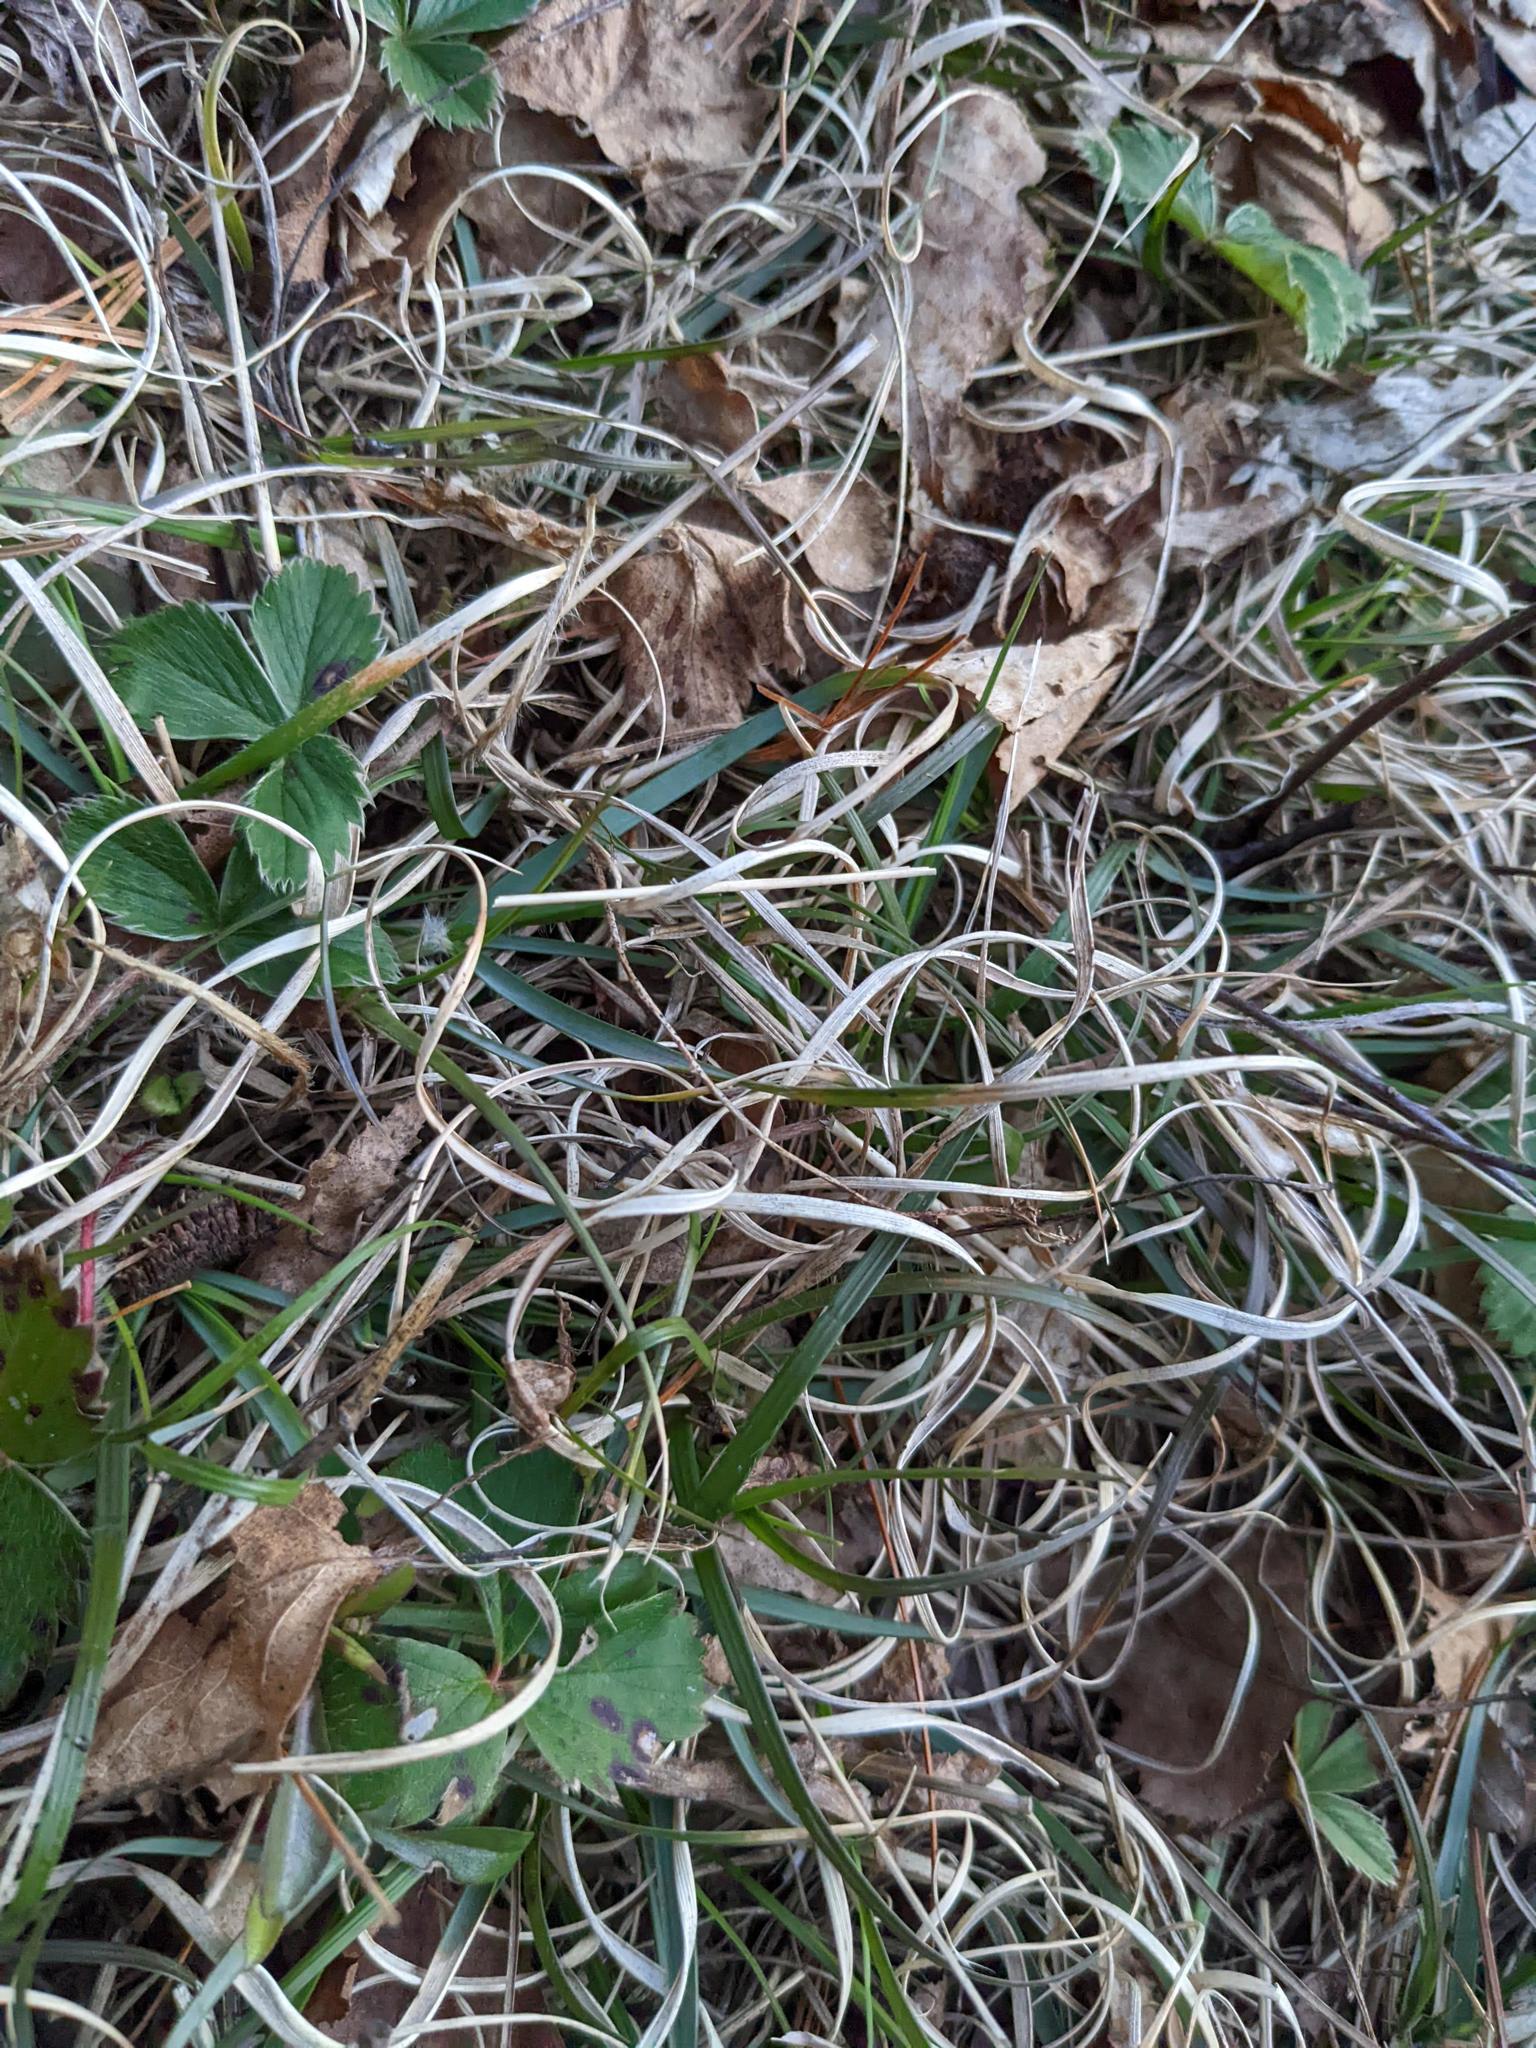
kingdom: Plantae
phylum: Tracheophyta
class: Liliopsida
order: Poales
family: Poaceae
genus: Danthonia
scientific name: Danthonia spicata
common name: Common wild oatgrass
